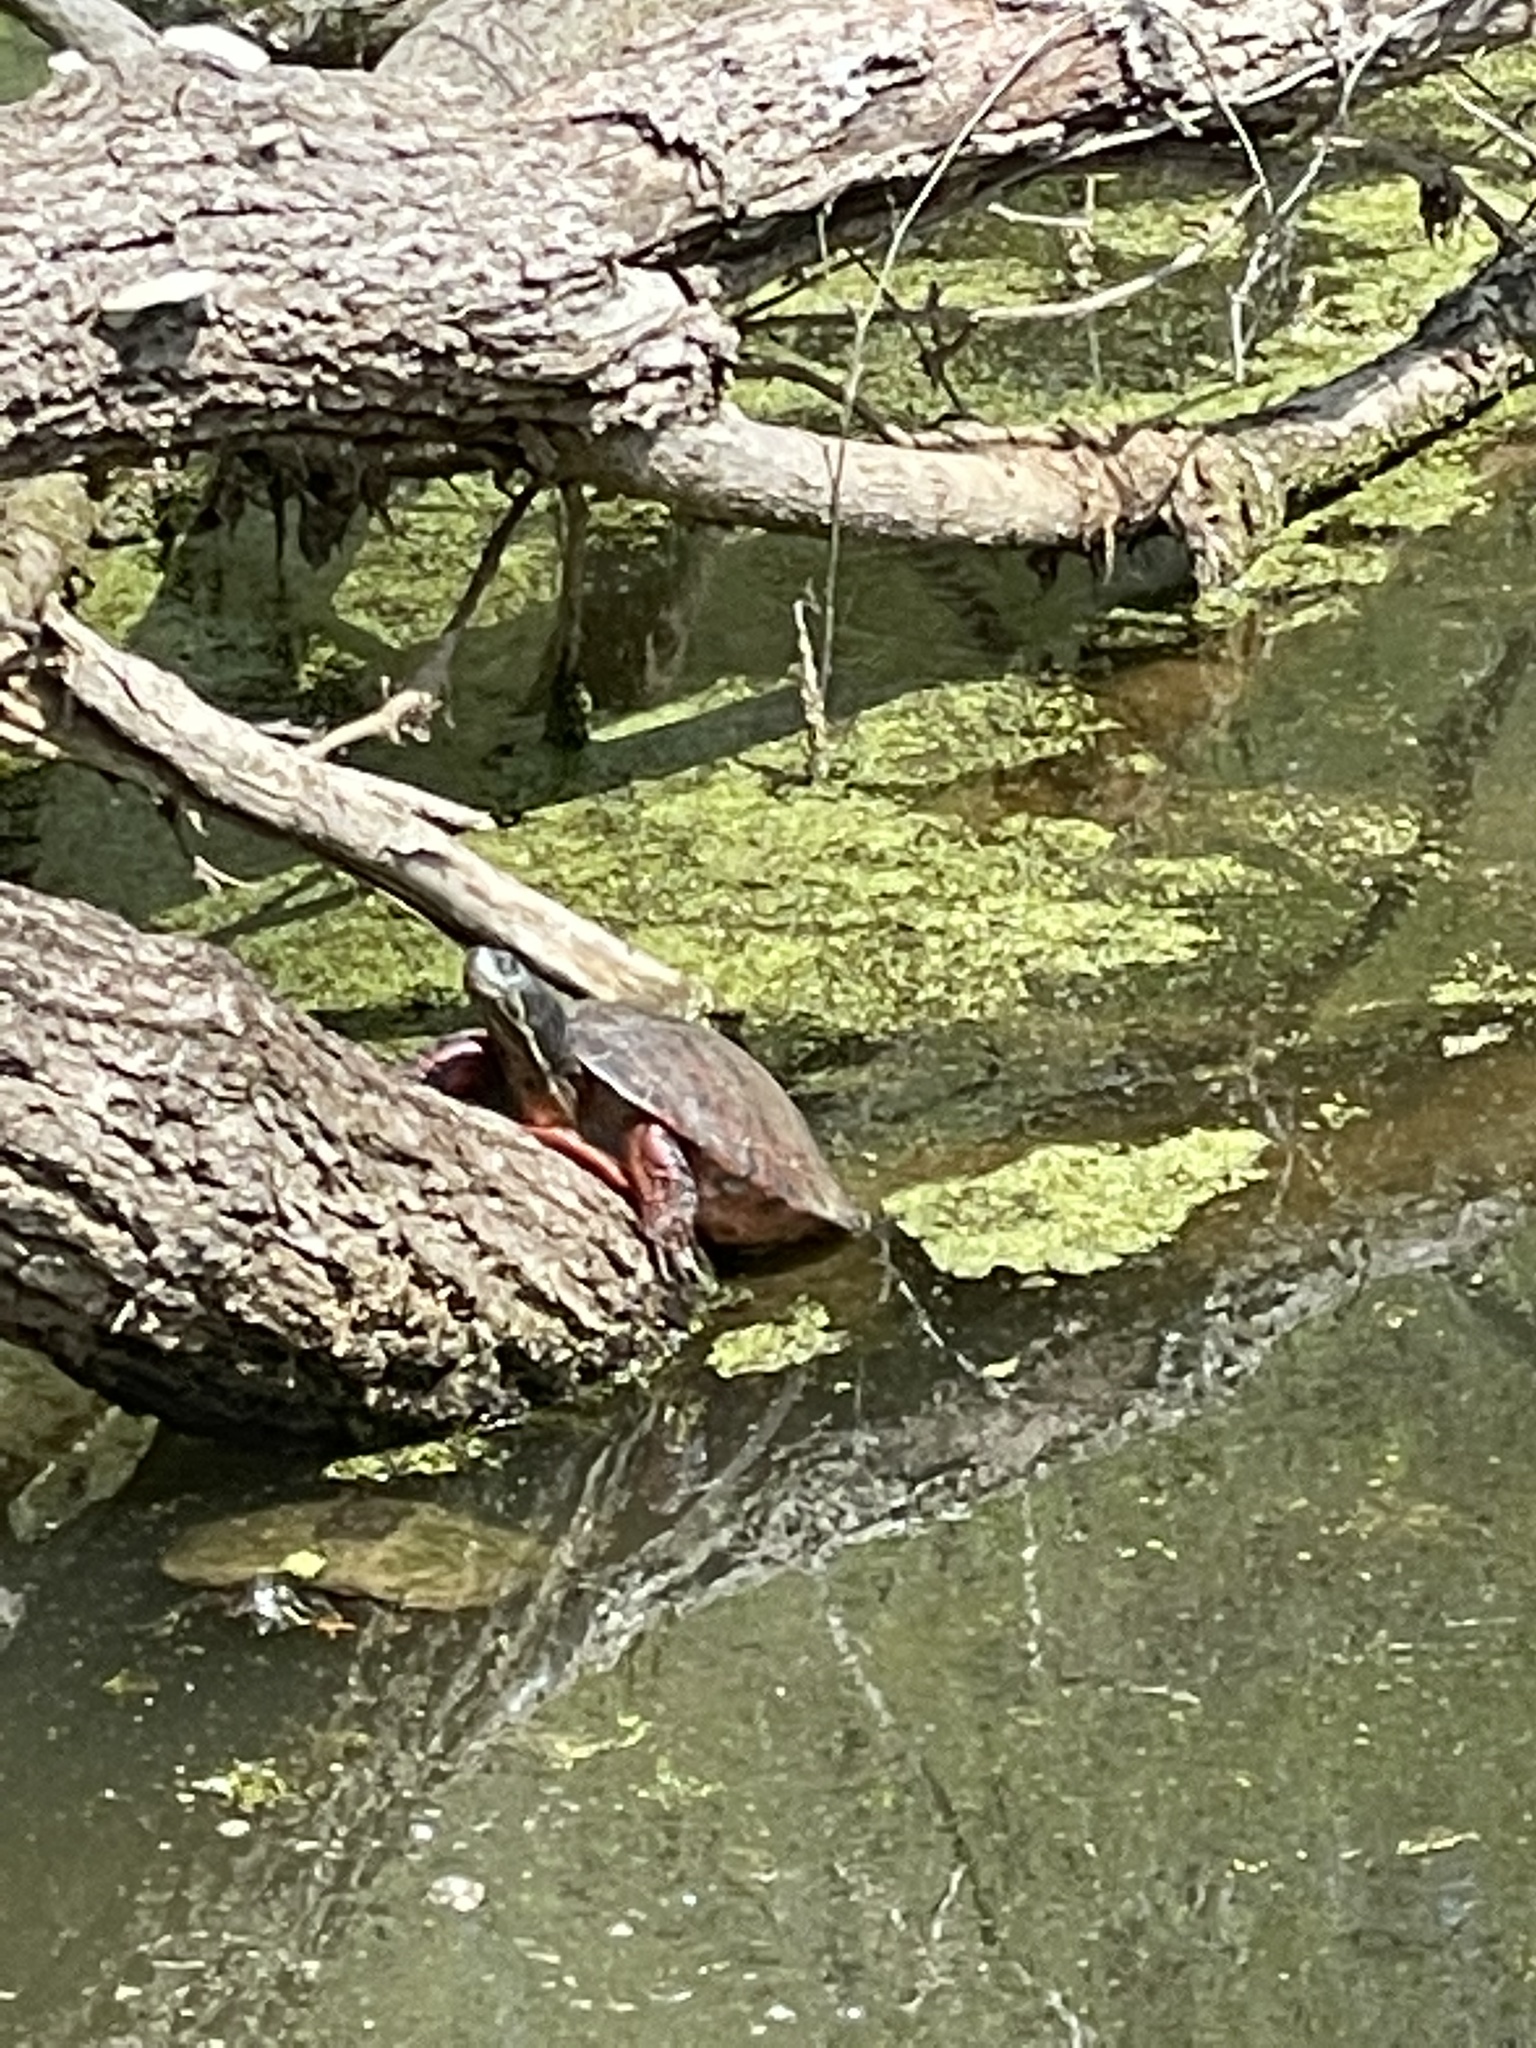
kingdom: Animalia
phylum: Chordata
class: Testudines
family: Emydidae
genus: Pseudemys
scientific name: Pseudemys rubriventris
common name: American red-bellied turtle
